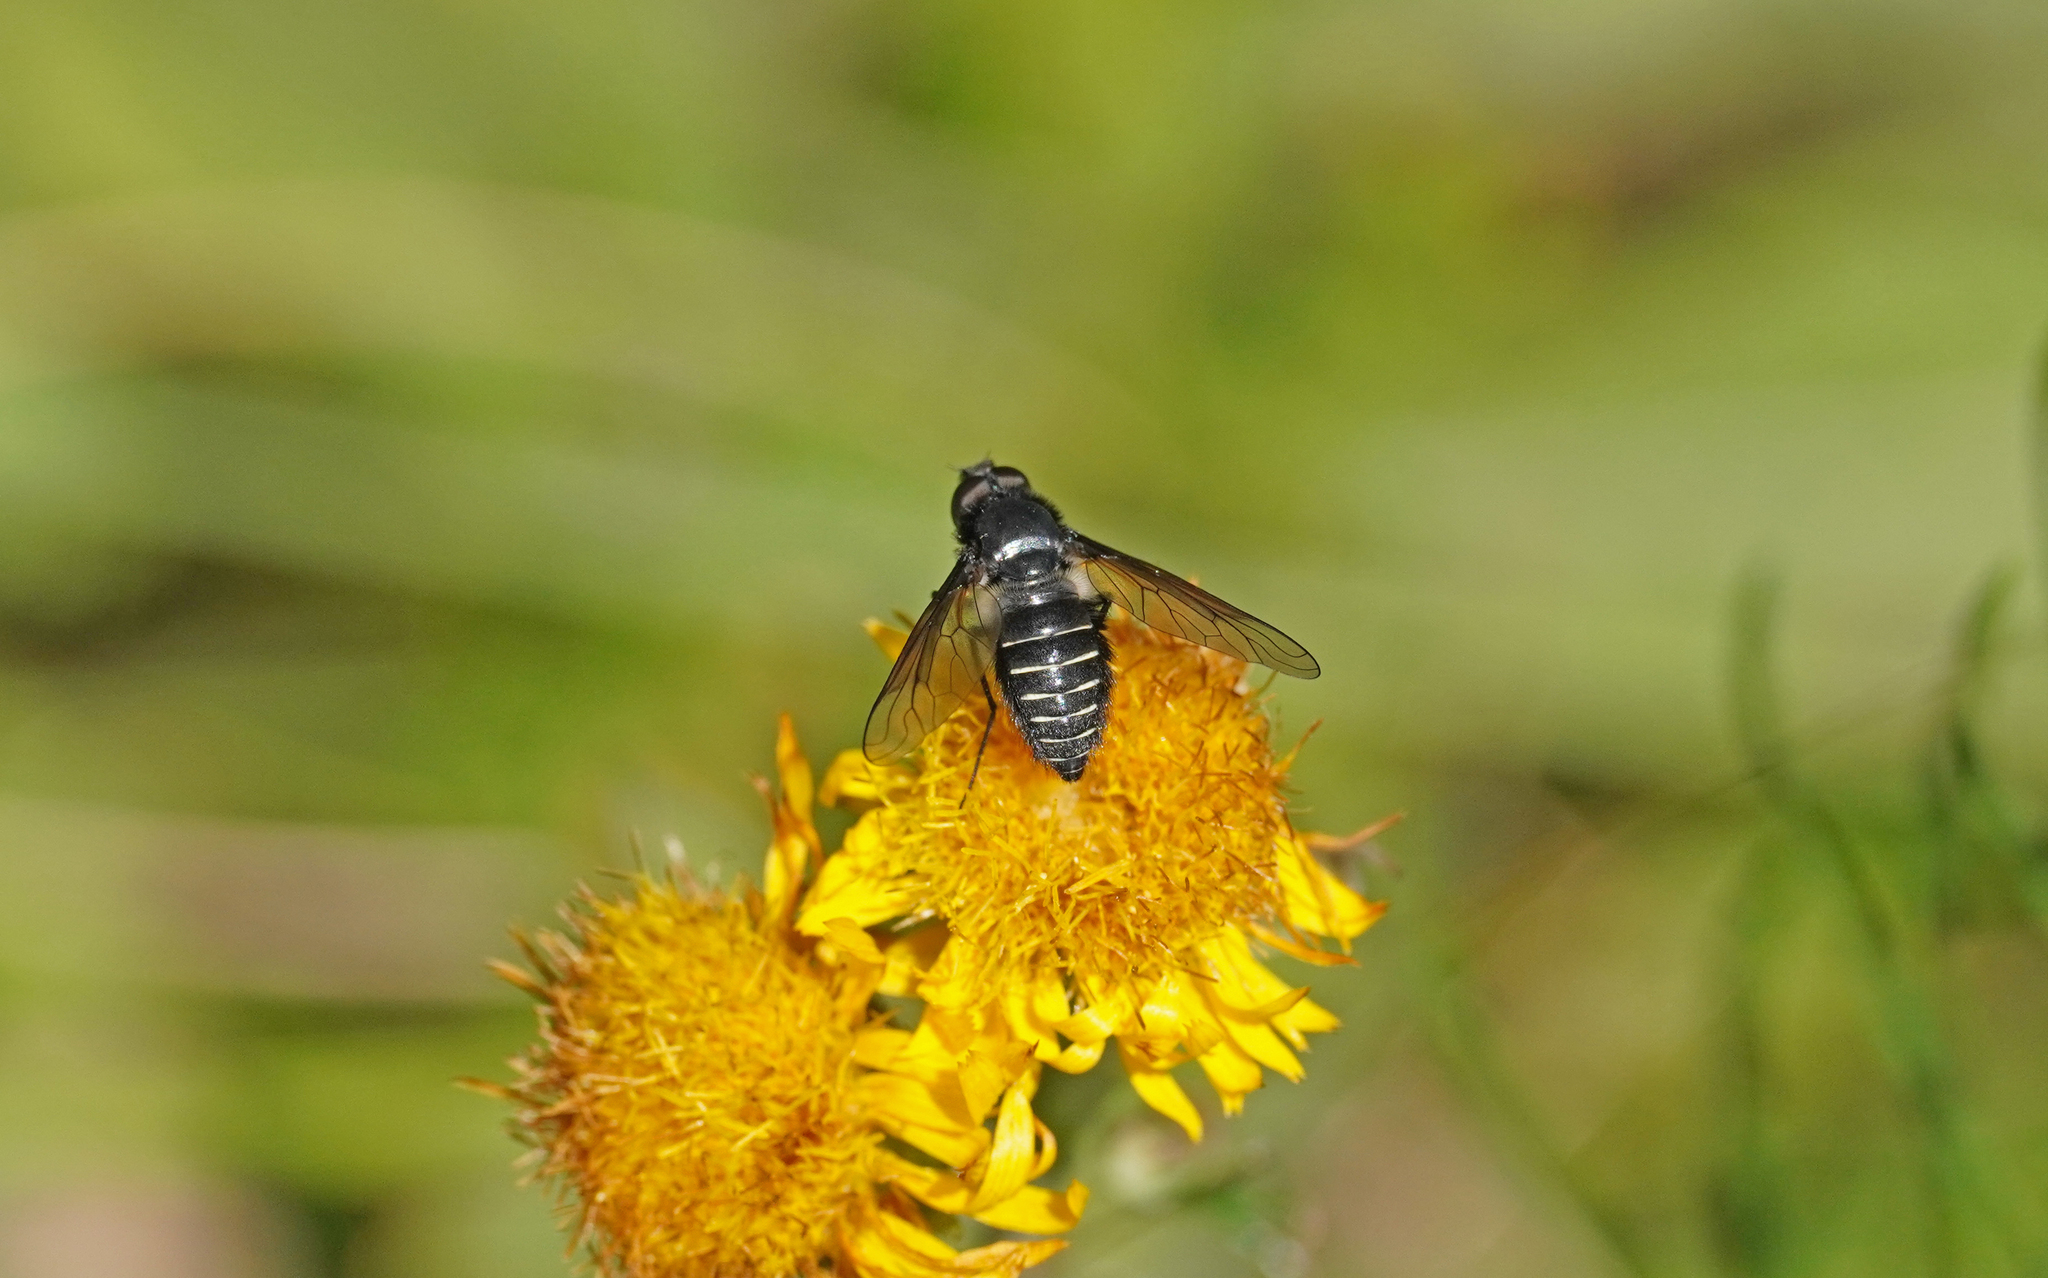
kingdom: Animalia
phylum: Arthropoda
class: Insecta
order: Diptera
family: Bombyliidae
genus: Lomatia
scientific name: Lomatia belzebul
